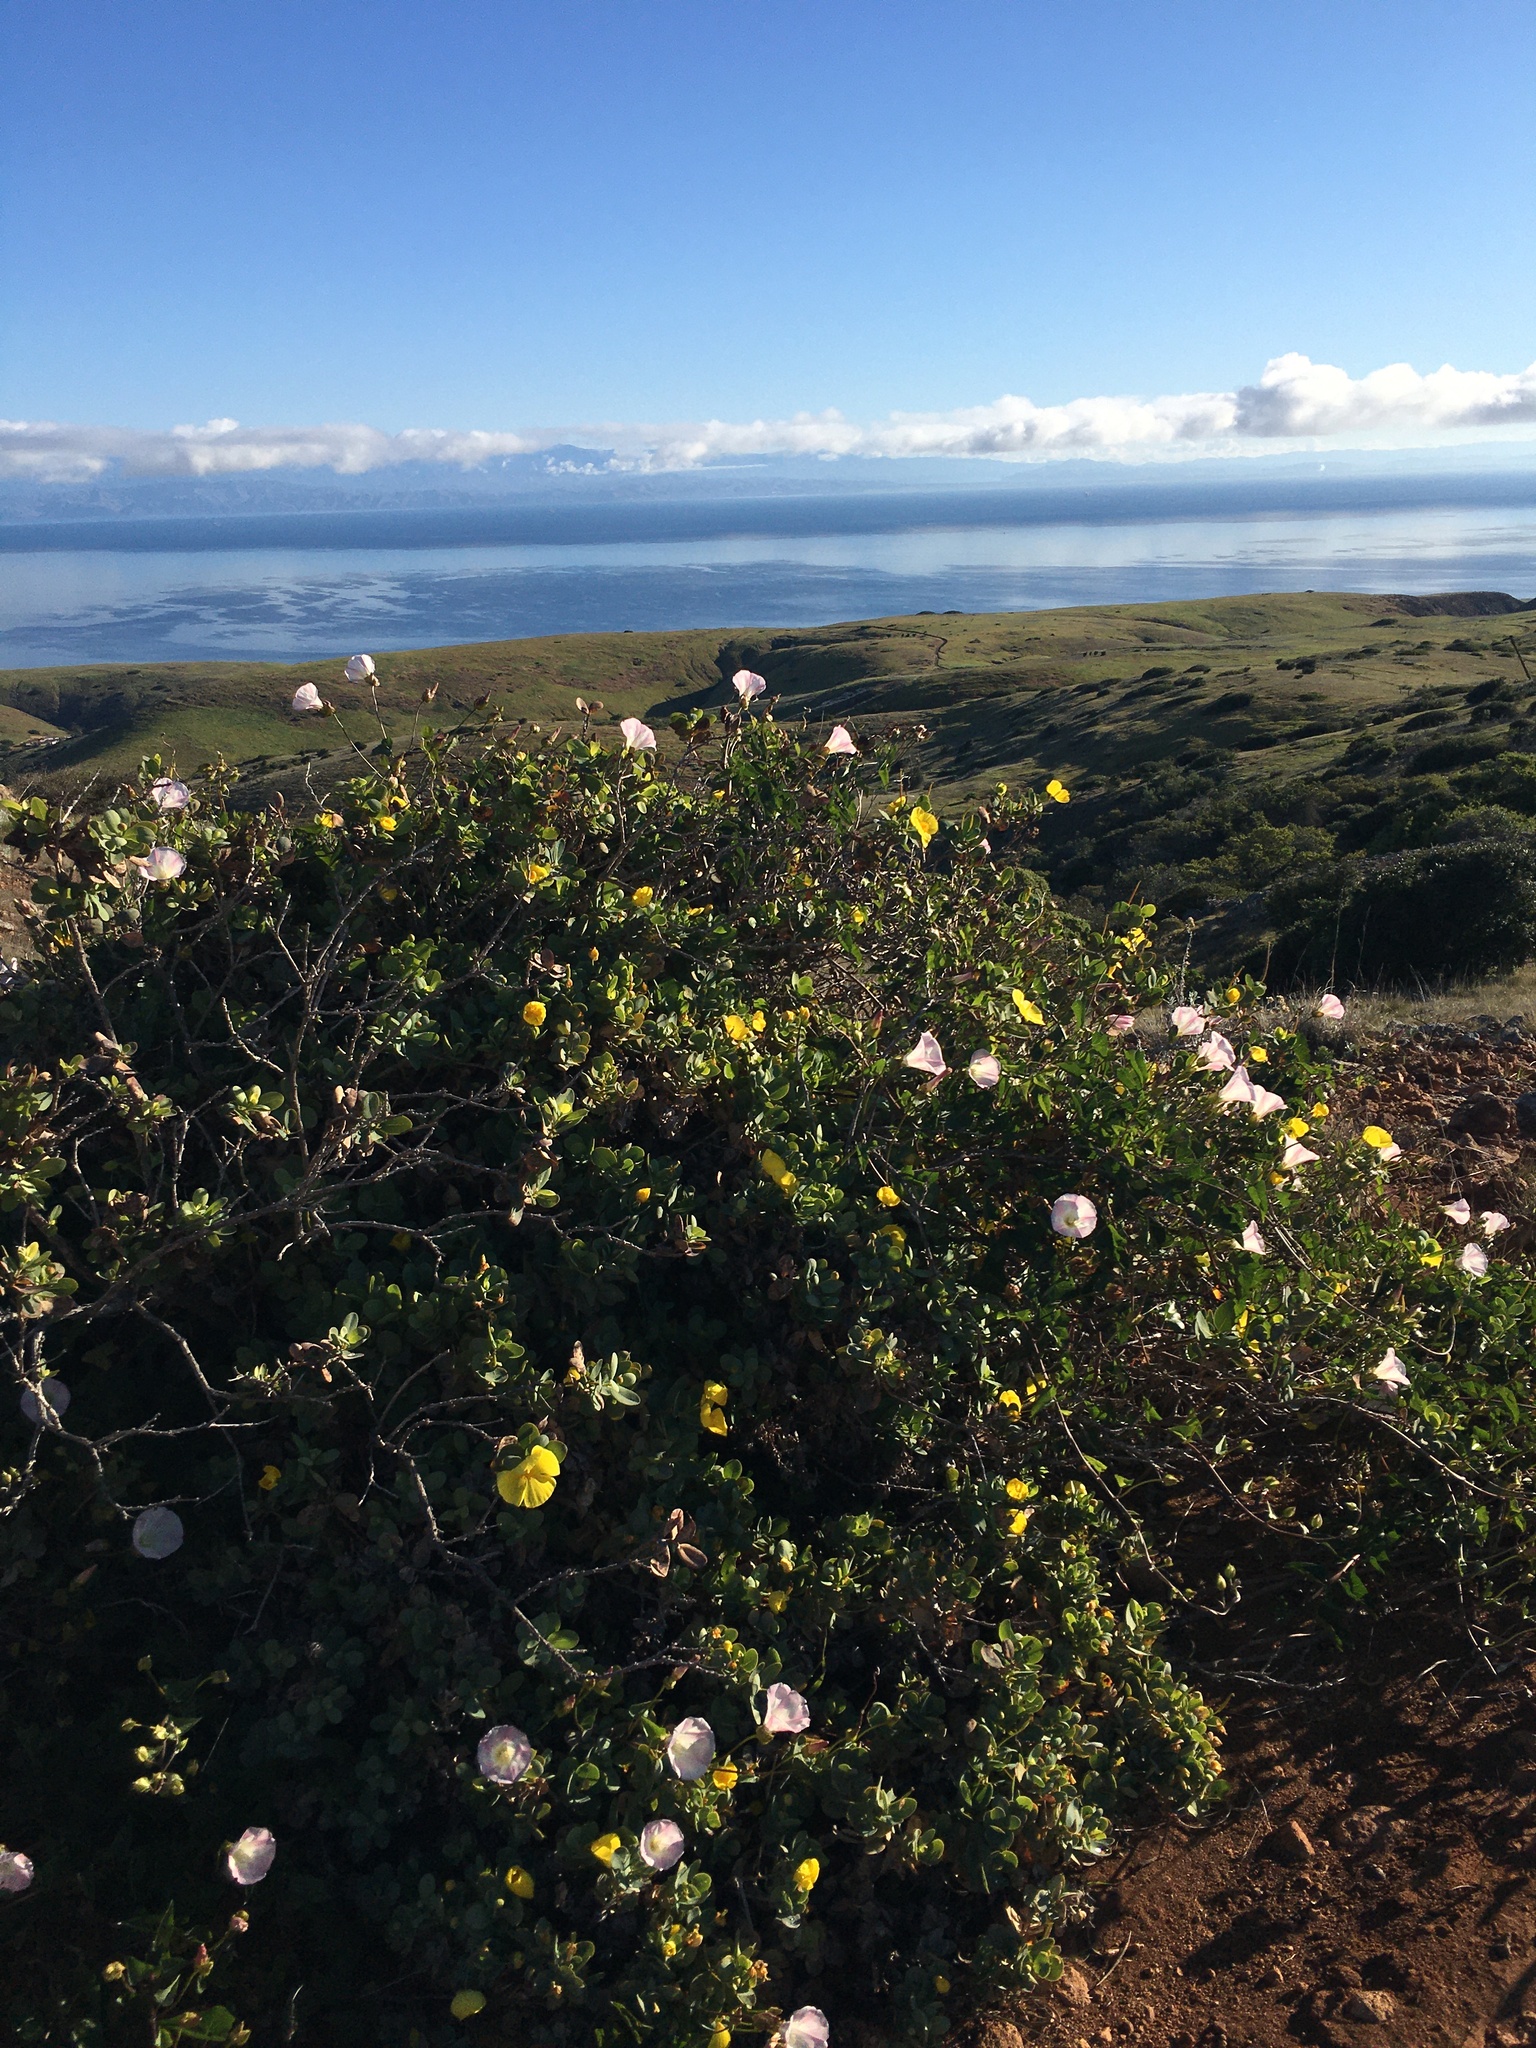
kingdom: Plantae
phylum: Tracheophyta
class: Magnoliopsida
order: Solanales
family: Convolvulaceae
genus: Calystegia
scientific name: Calystegia macrostegia
